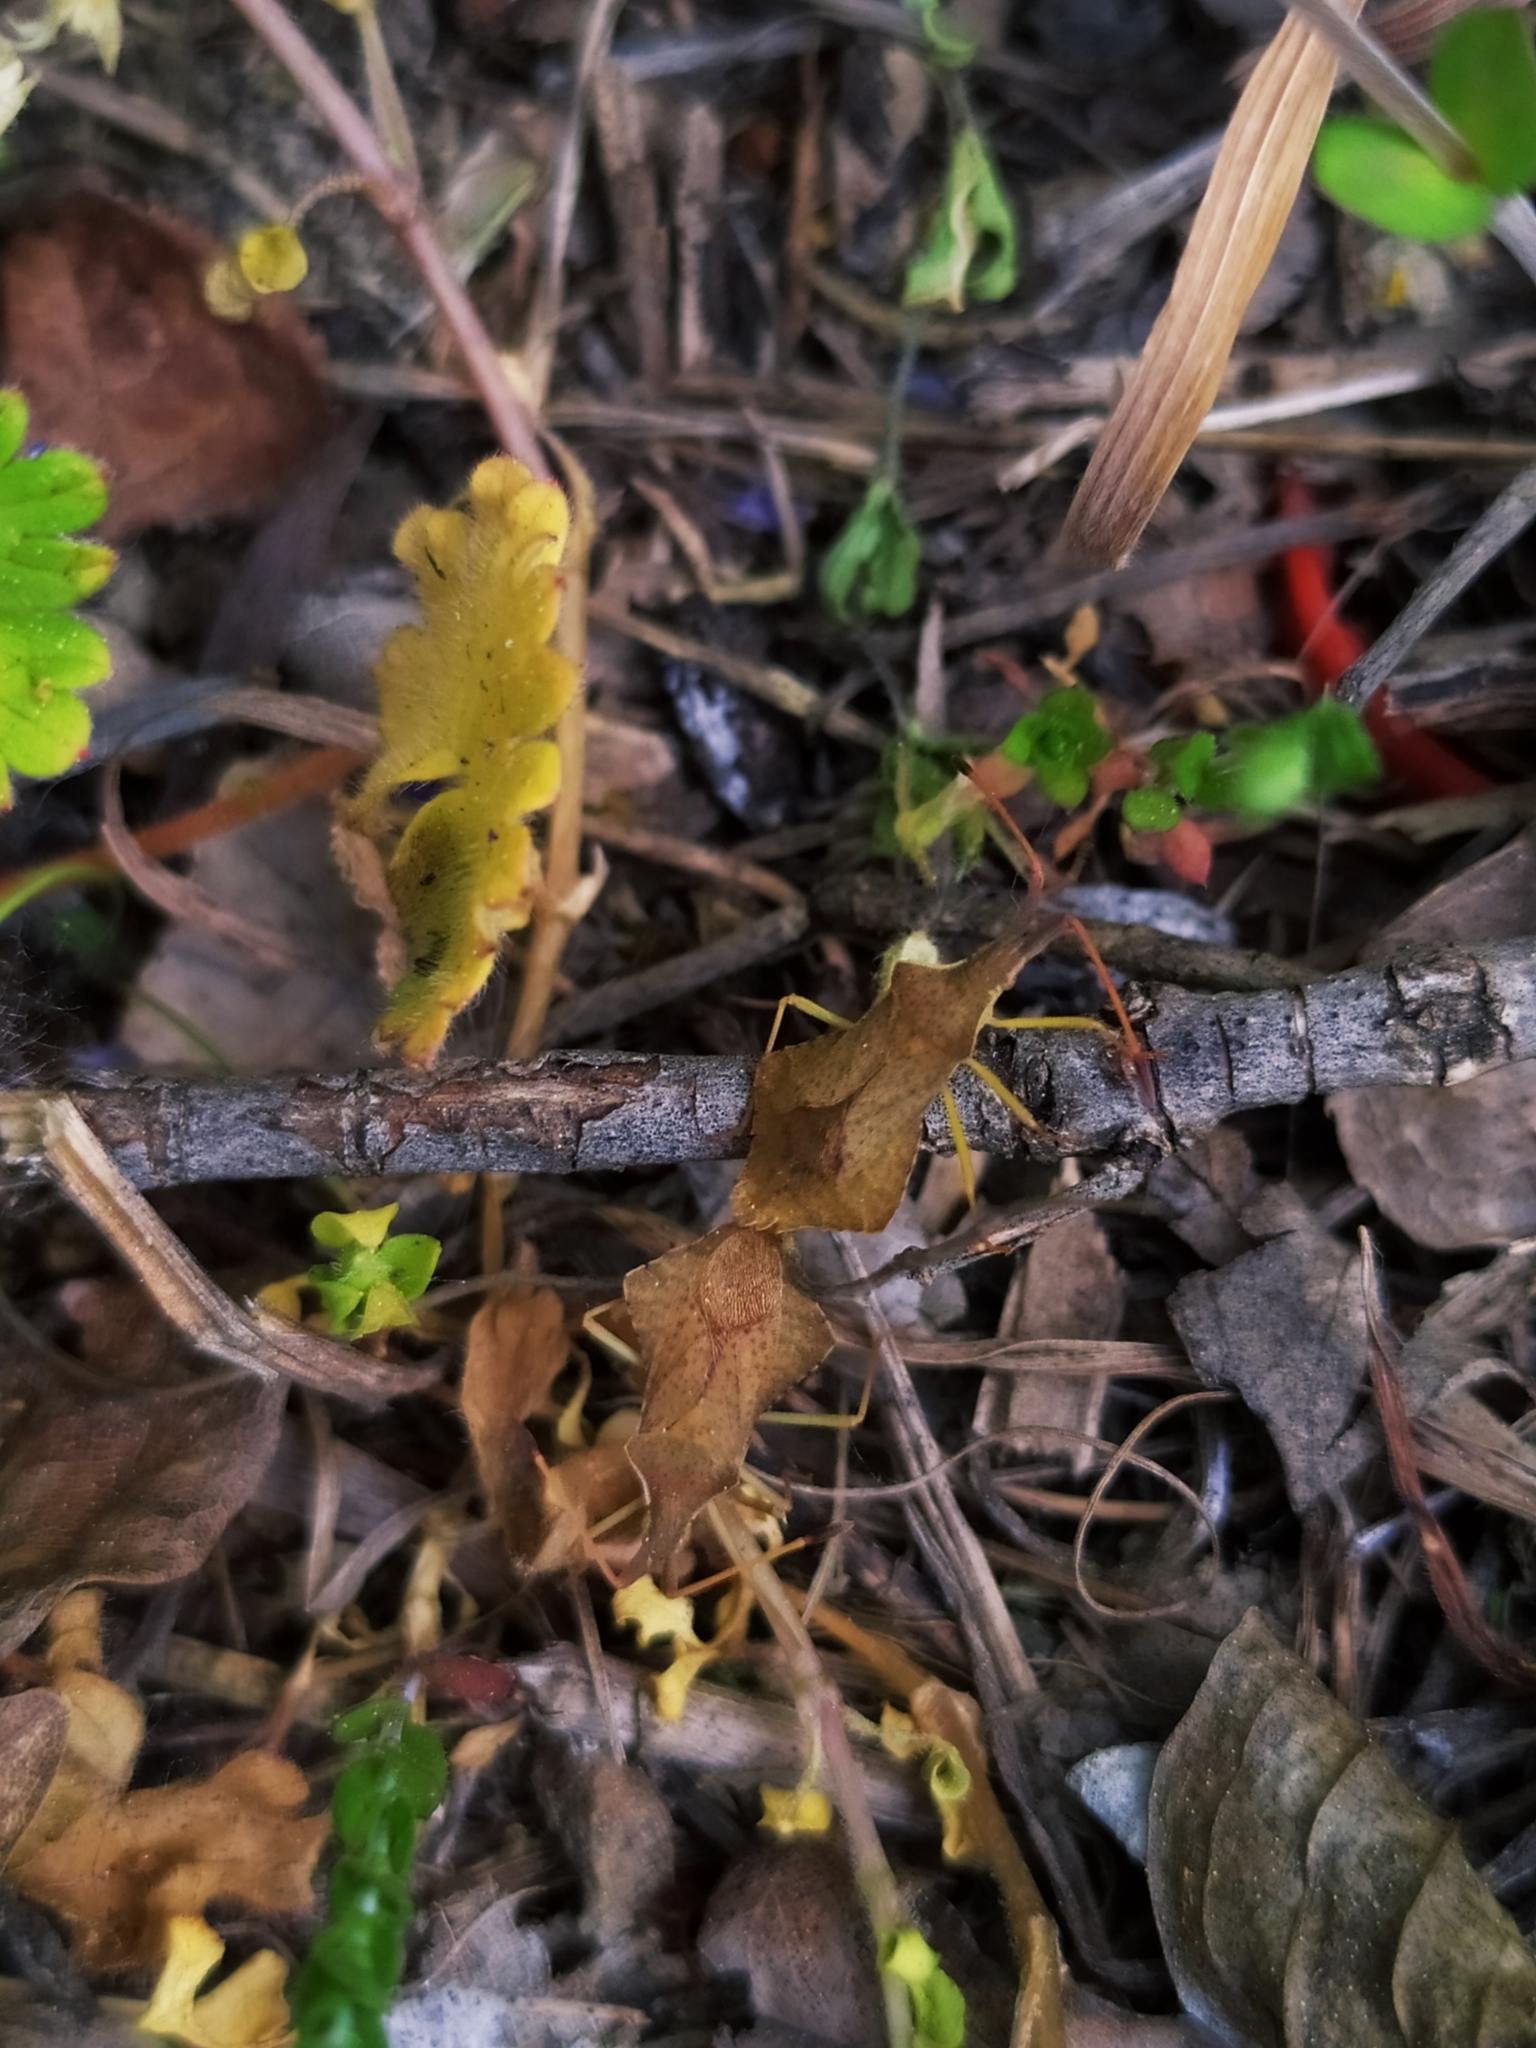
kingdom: Animalia
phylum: Arthropoda
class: Insecta
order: Hemiptera
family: Coreidae
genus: Syromastus
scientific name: Syromastus rhombeus
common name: Rhombic leatherbug
